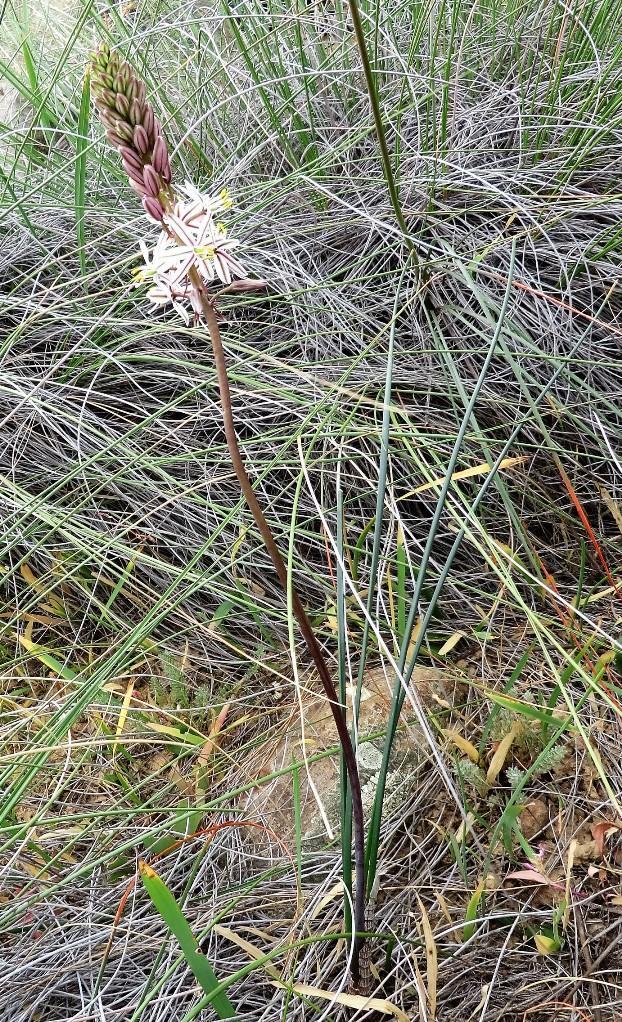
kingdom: Plantae
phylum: Tracheophyta
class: Liliopsida
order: Asparagales
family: Asparagaceae
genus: Drimia
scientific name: Drimia exuviata
